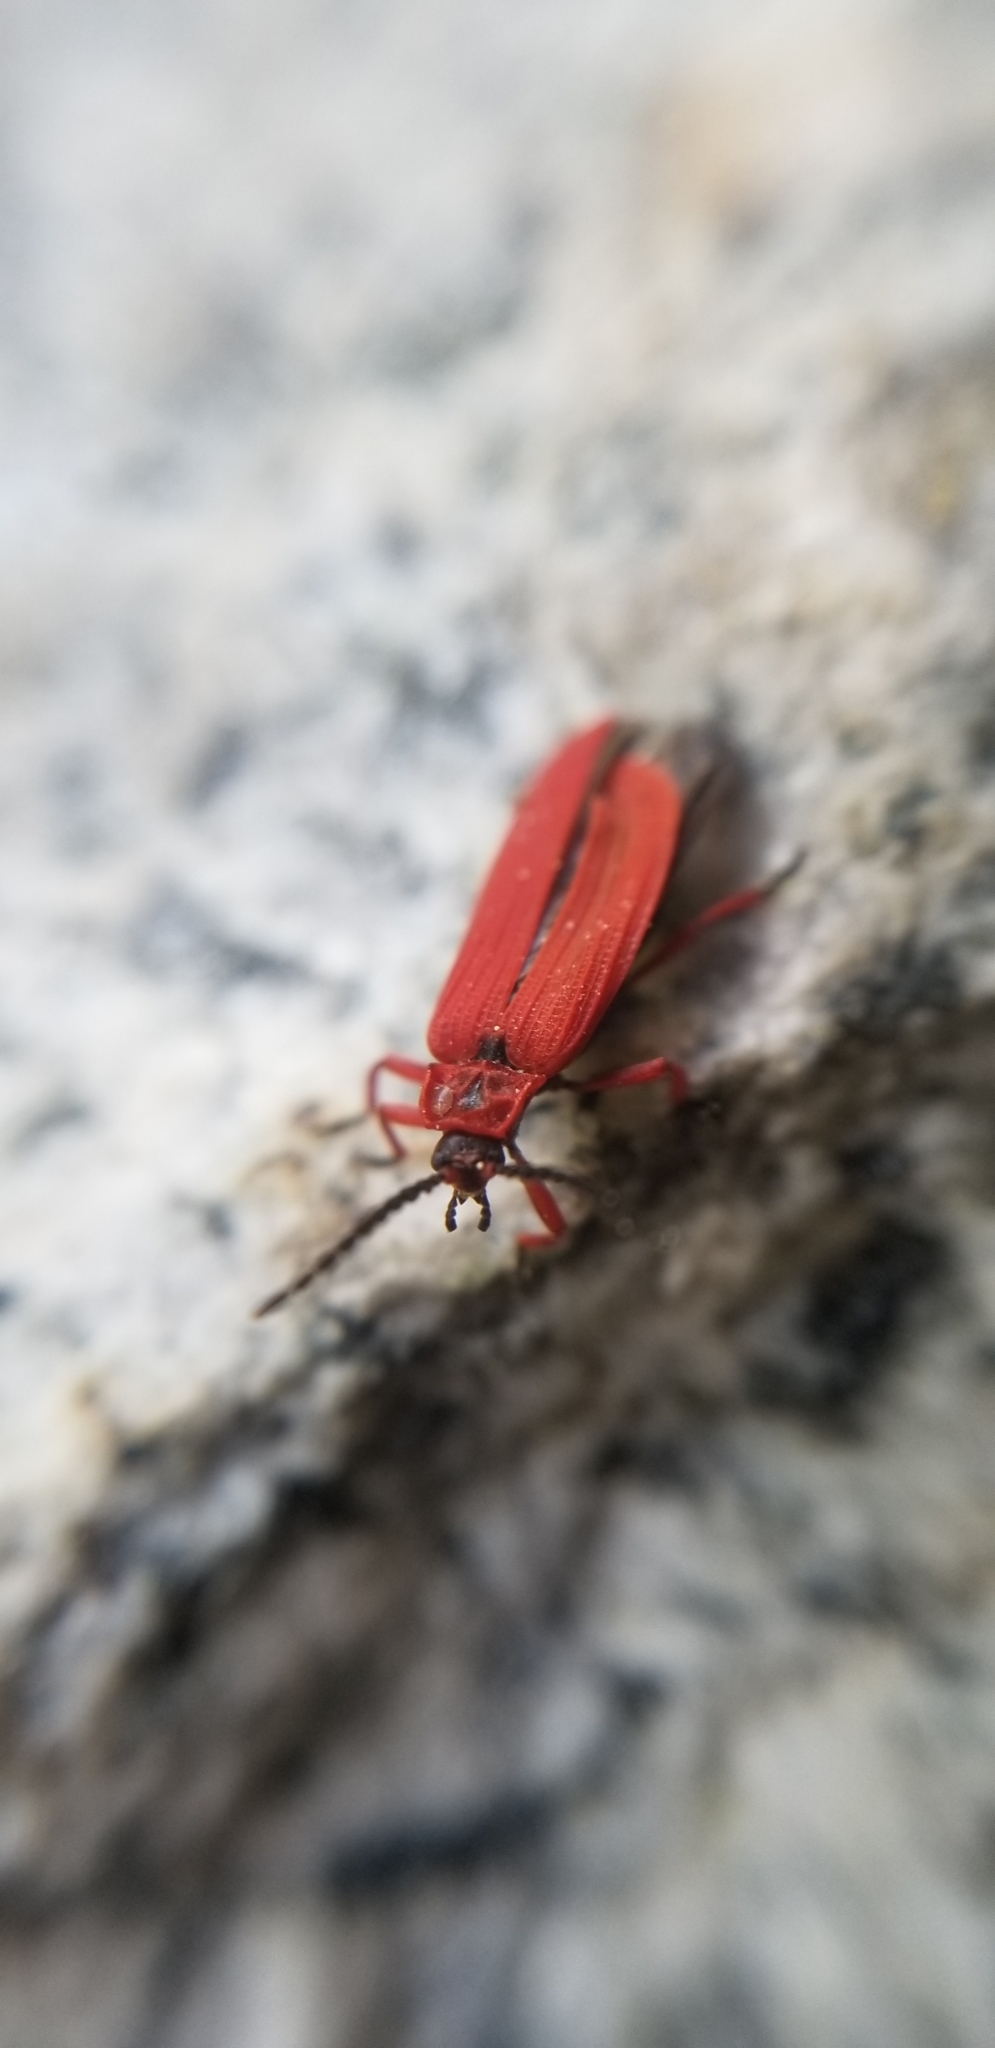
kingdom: Animalia
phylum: Arthropoda
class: Insecta
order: Coleoptera
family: Lycidae
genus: Dictyoptera
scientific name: Dictyoptera simplicipes
